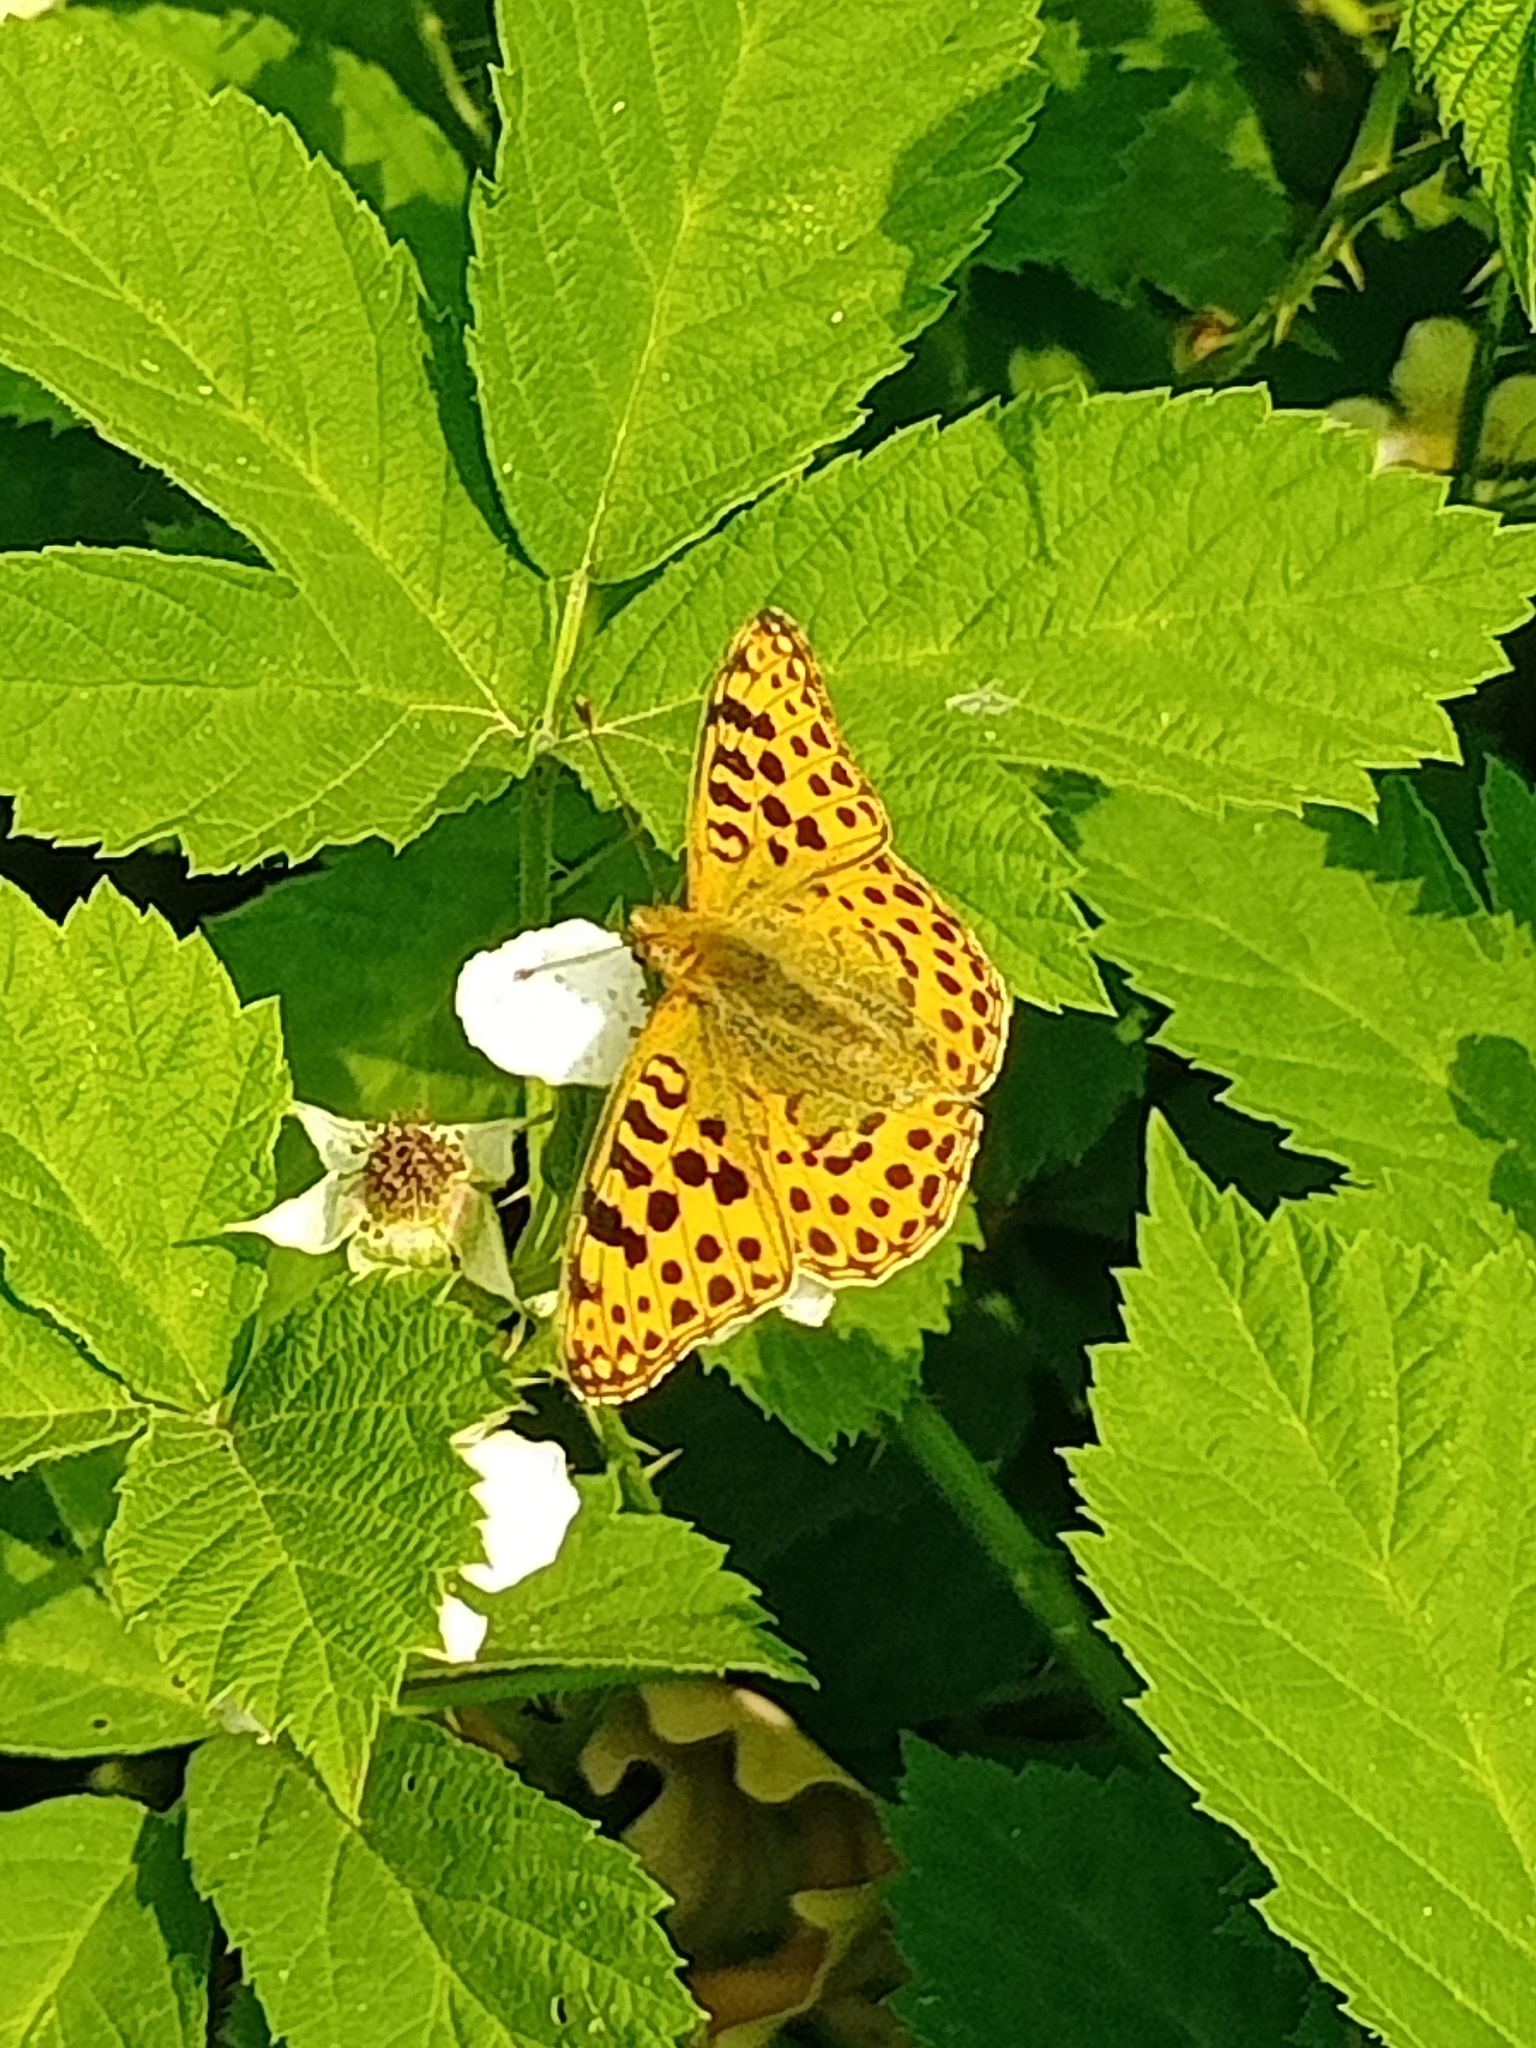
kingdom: Animalia
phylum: Arthropoda
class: Insecta
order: Lepidoptera
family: Nymphalidae
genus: Issoria
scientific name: Issoria lathonia
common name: Queen of spain fritillary
